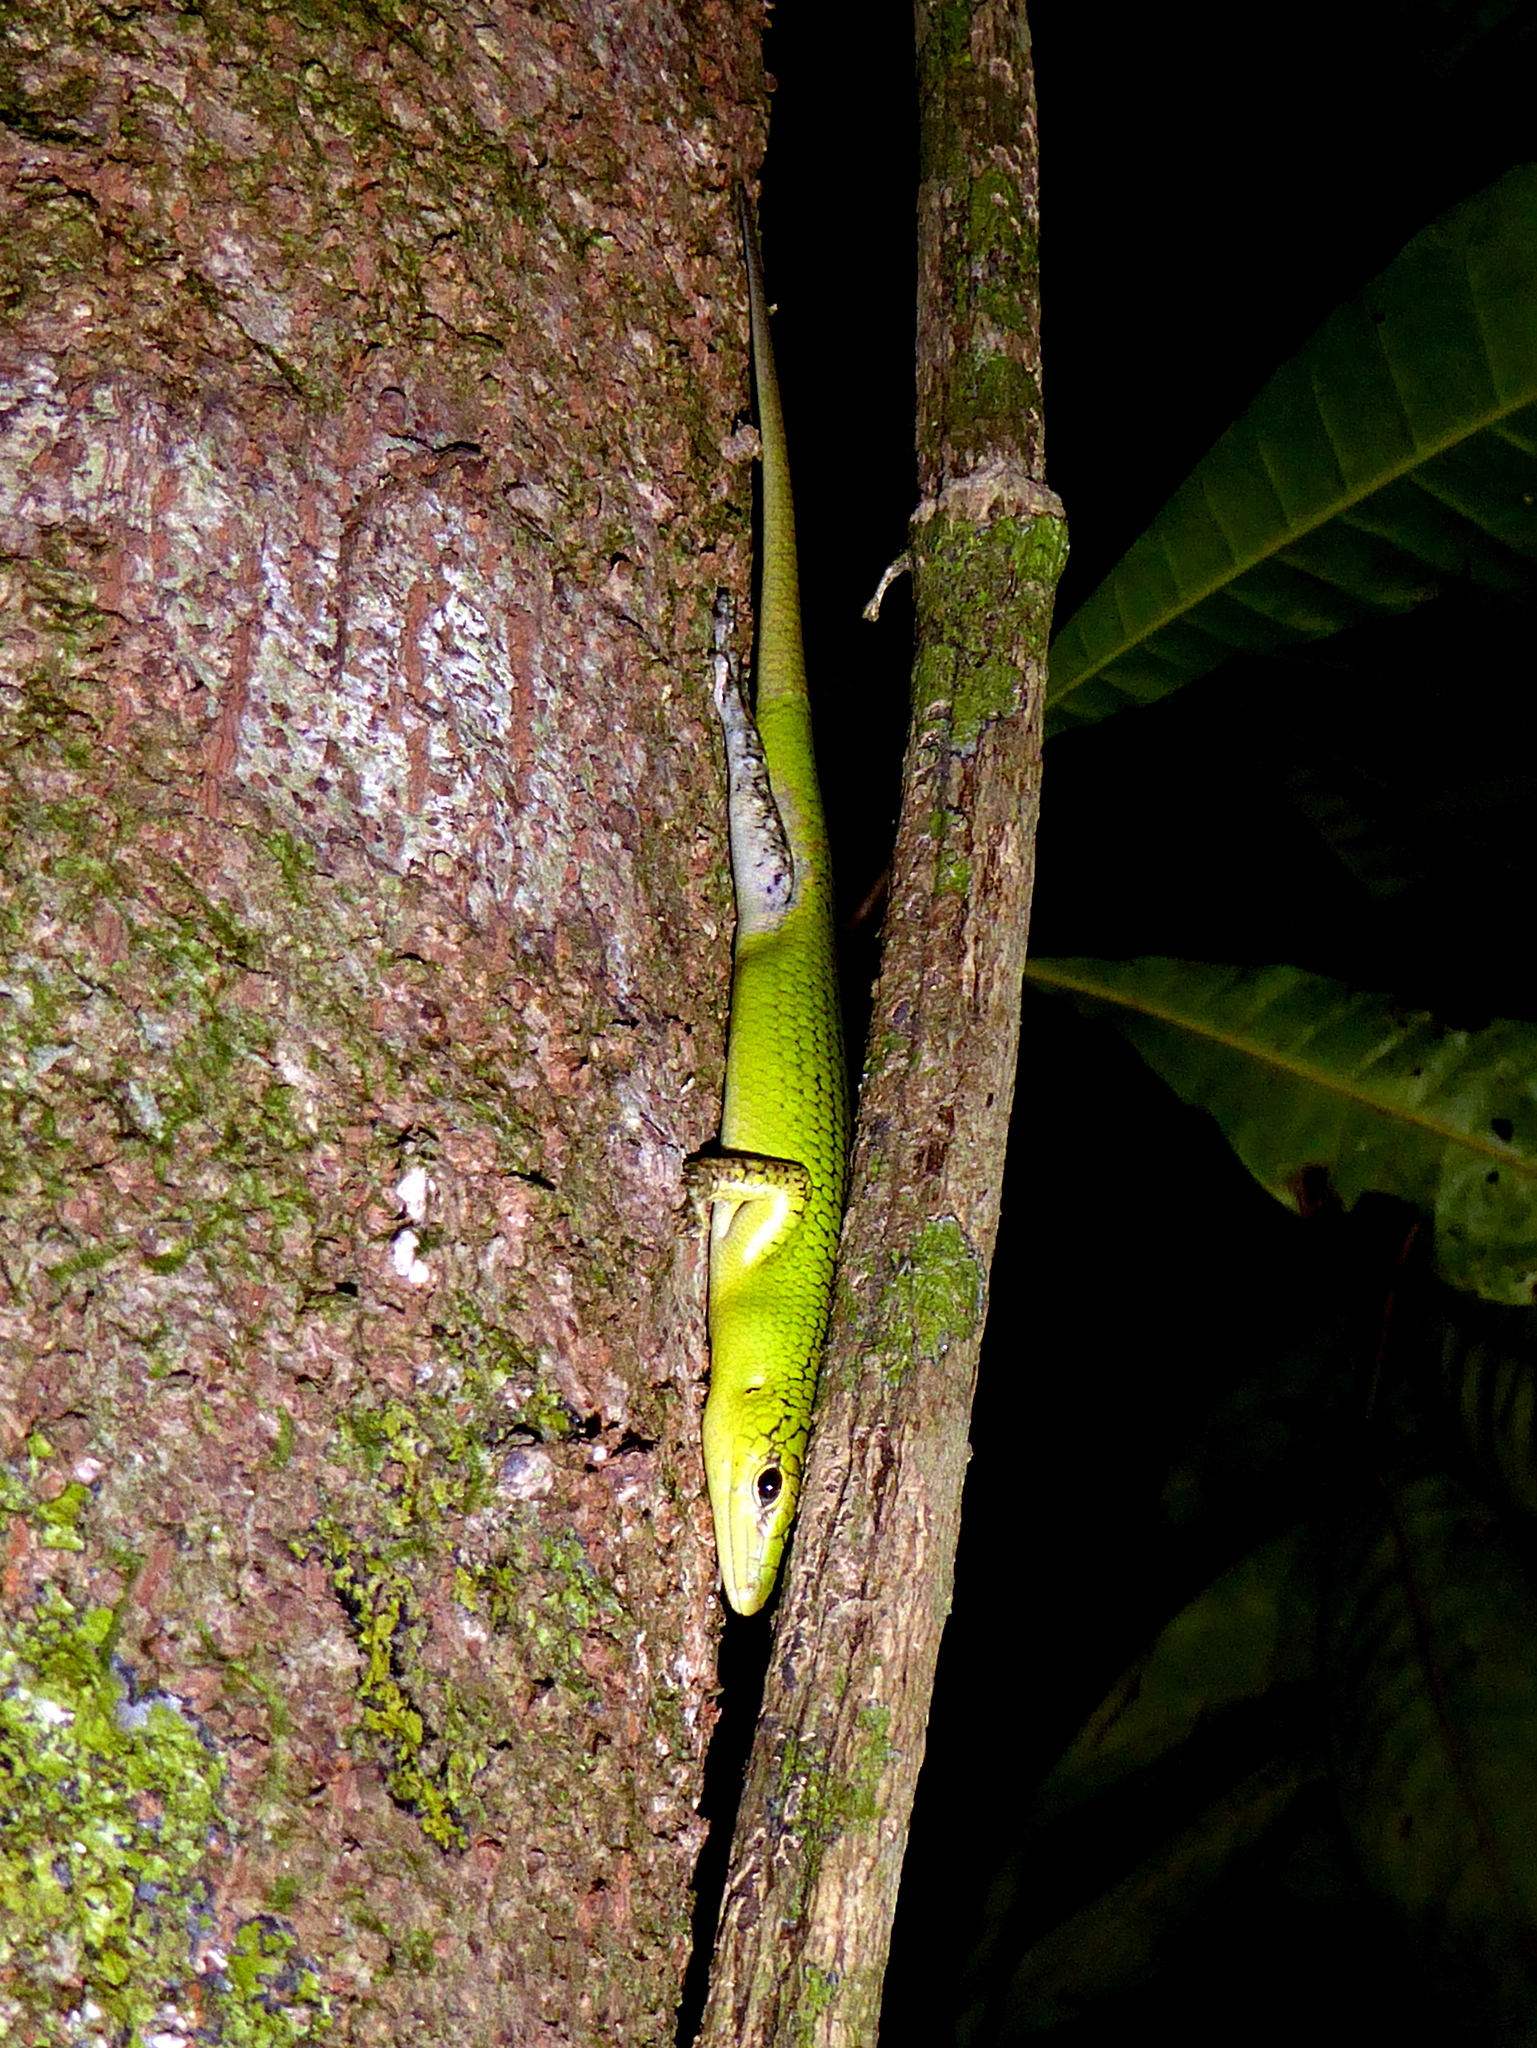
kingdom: Animalia
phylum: Chordata
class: Squamata
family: Scincidae
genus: Lamprolepis
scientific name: Lamprolepis smaragdina
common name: Emerald skink
